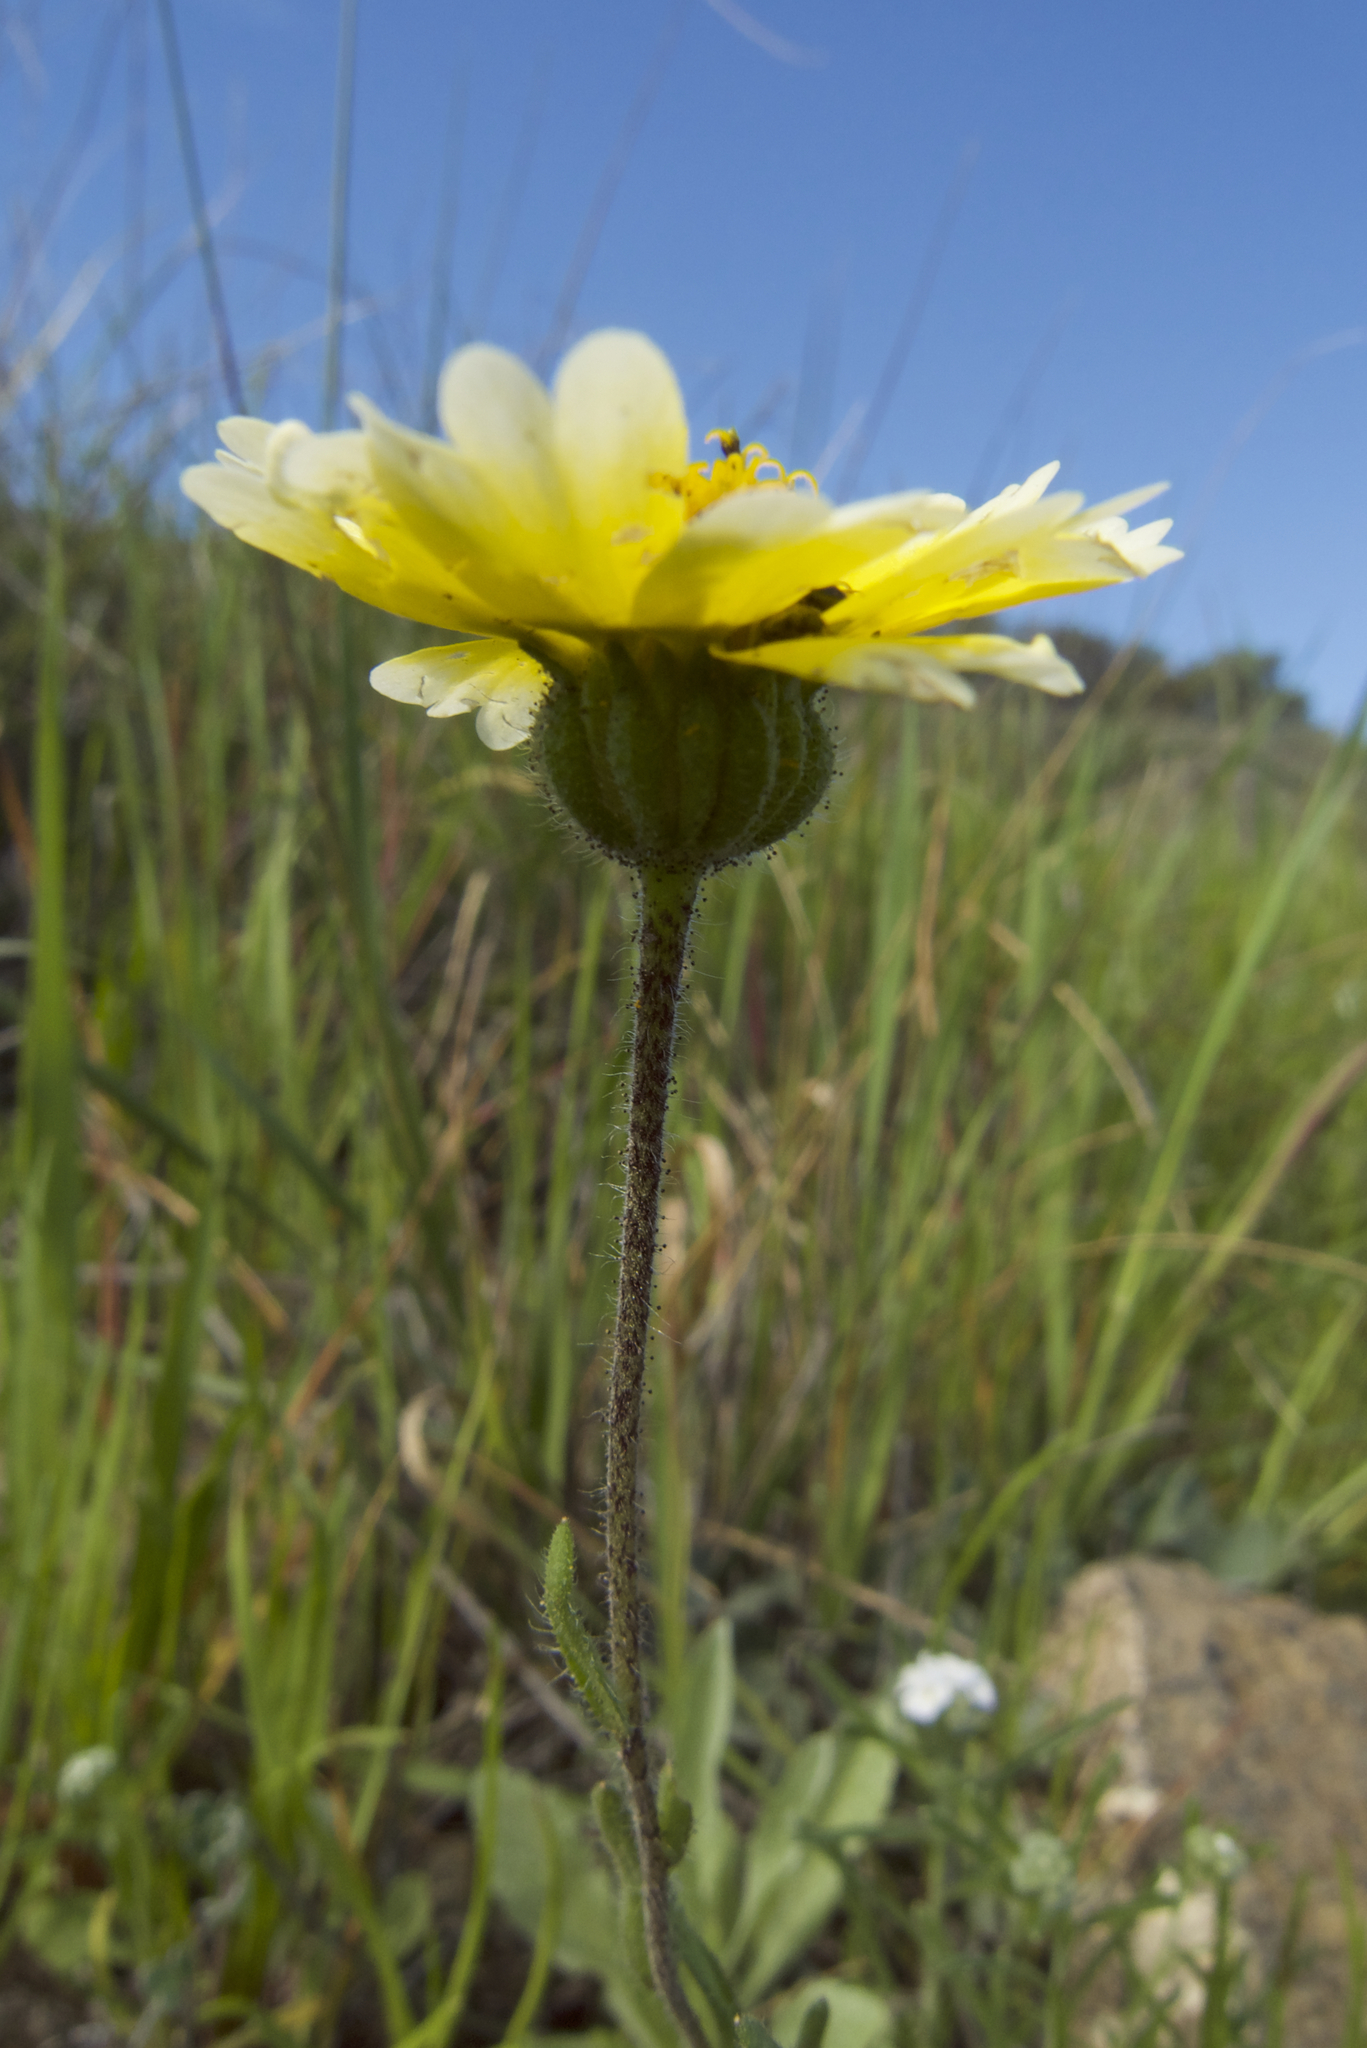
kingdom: Plantae
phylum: Tracheophyta
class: Magnoliopsida
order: Asterales
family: Asteraceae
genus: Layia
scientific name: Layia gaillardioides
